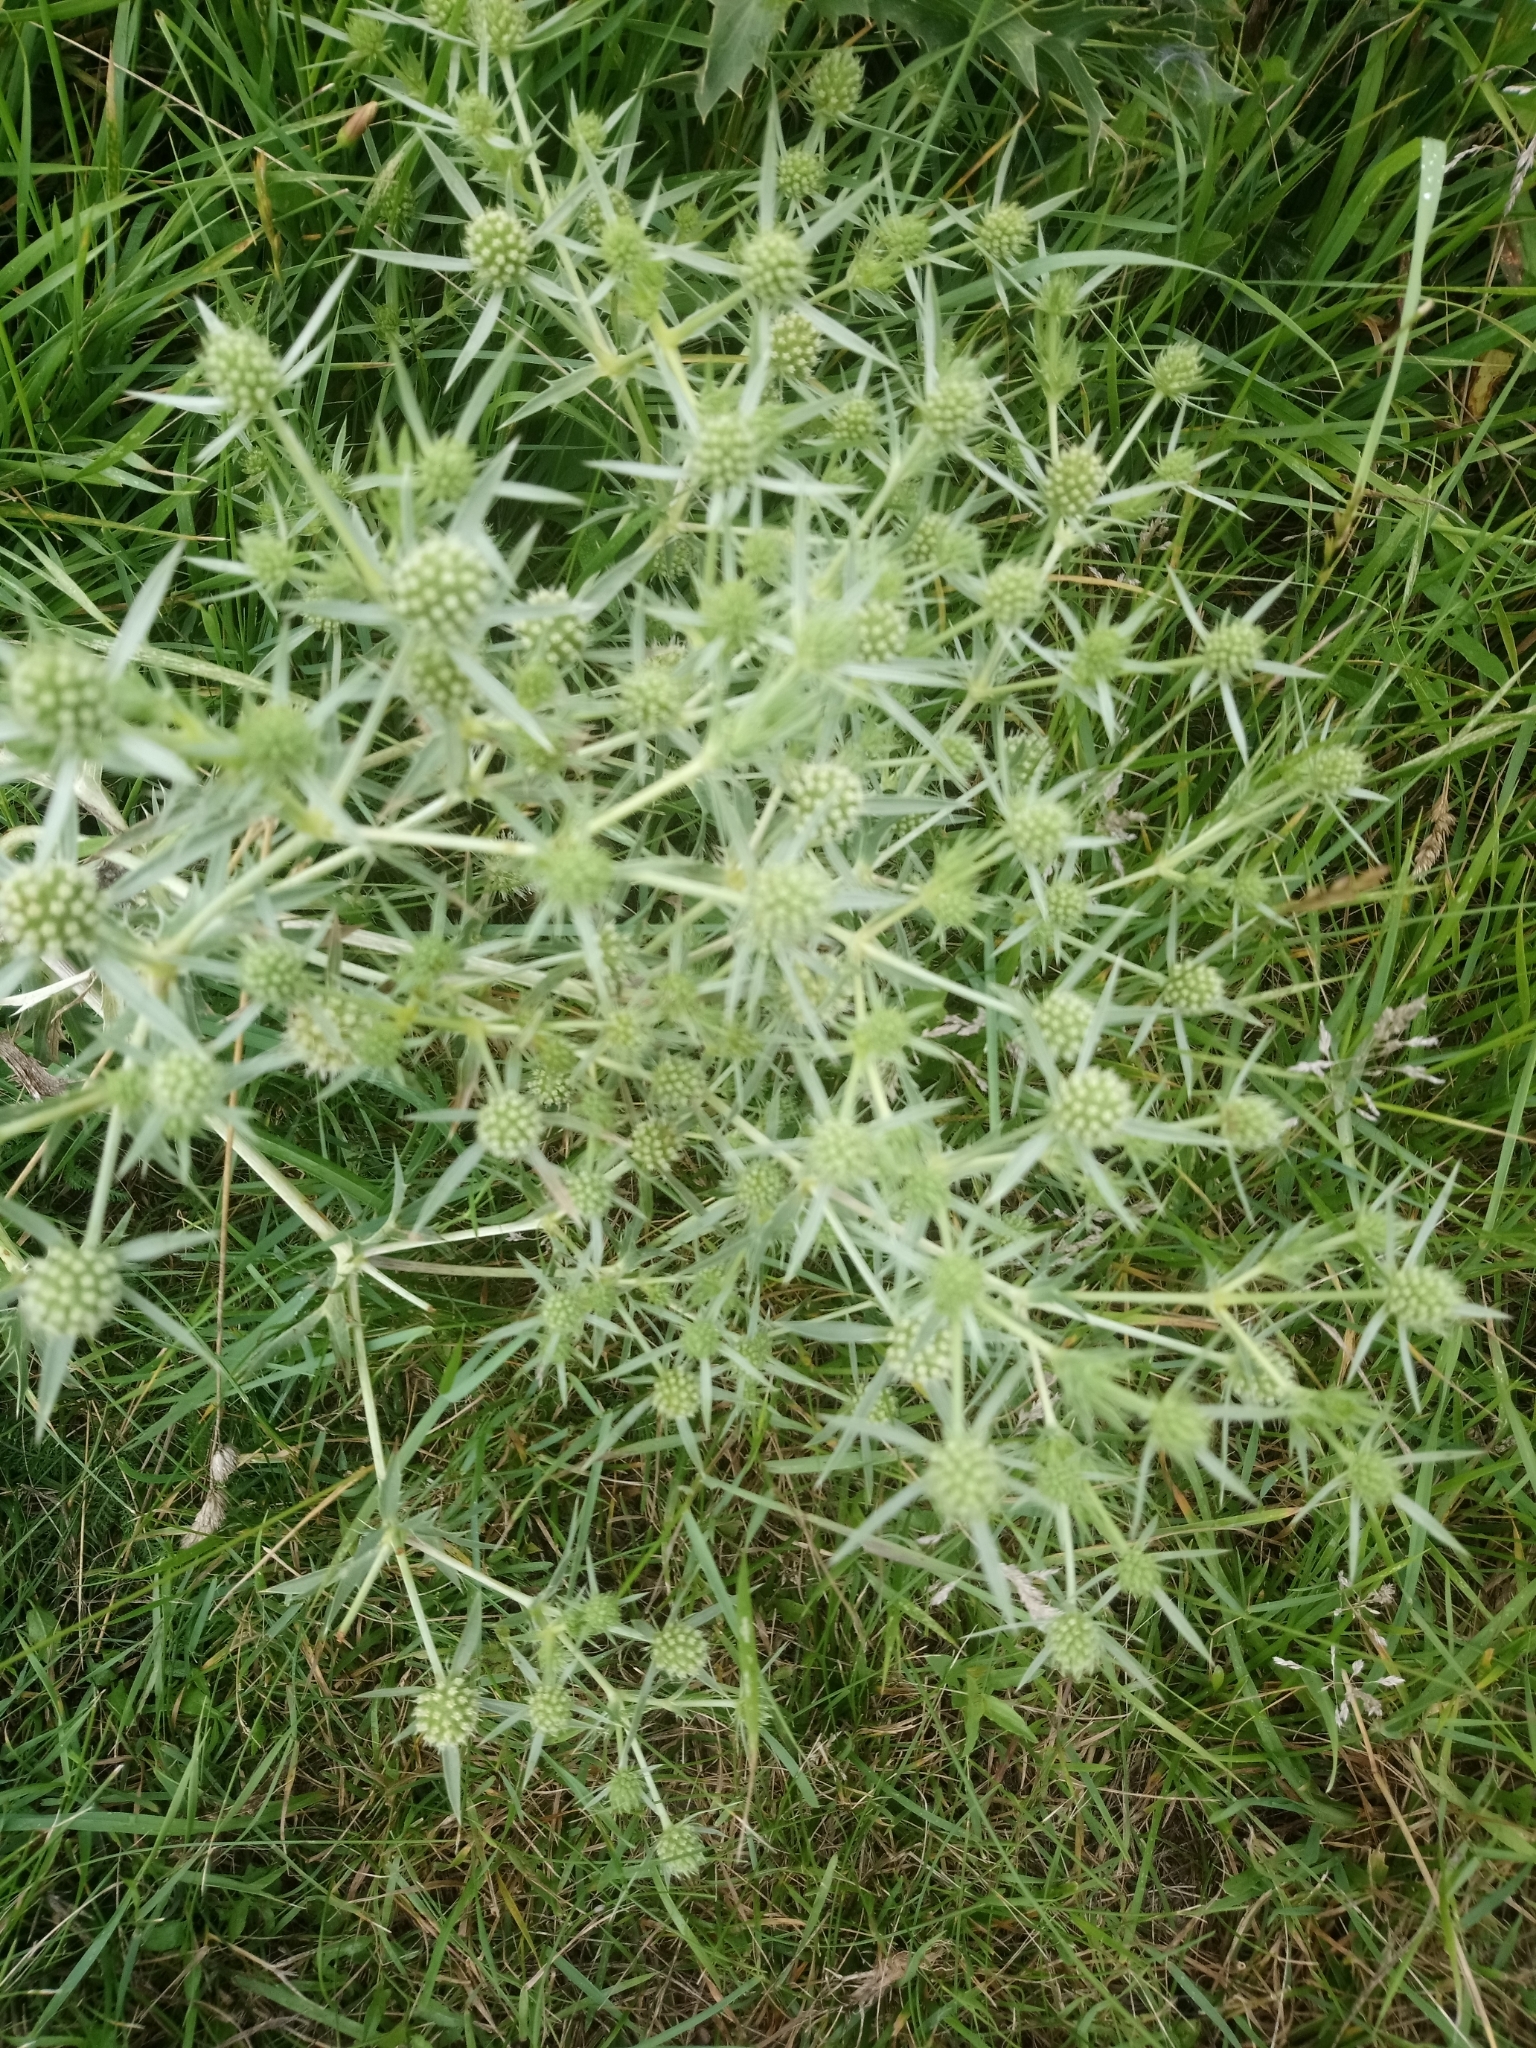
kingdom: Plantae
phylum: Tracheophyta
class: Magnoliopsida
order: Apiales
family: Apiaceae
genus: Eryngium
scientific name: Eryngium campestre
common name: Field eryngo
